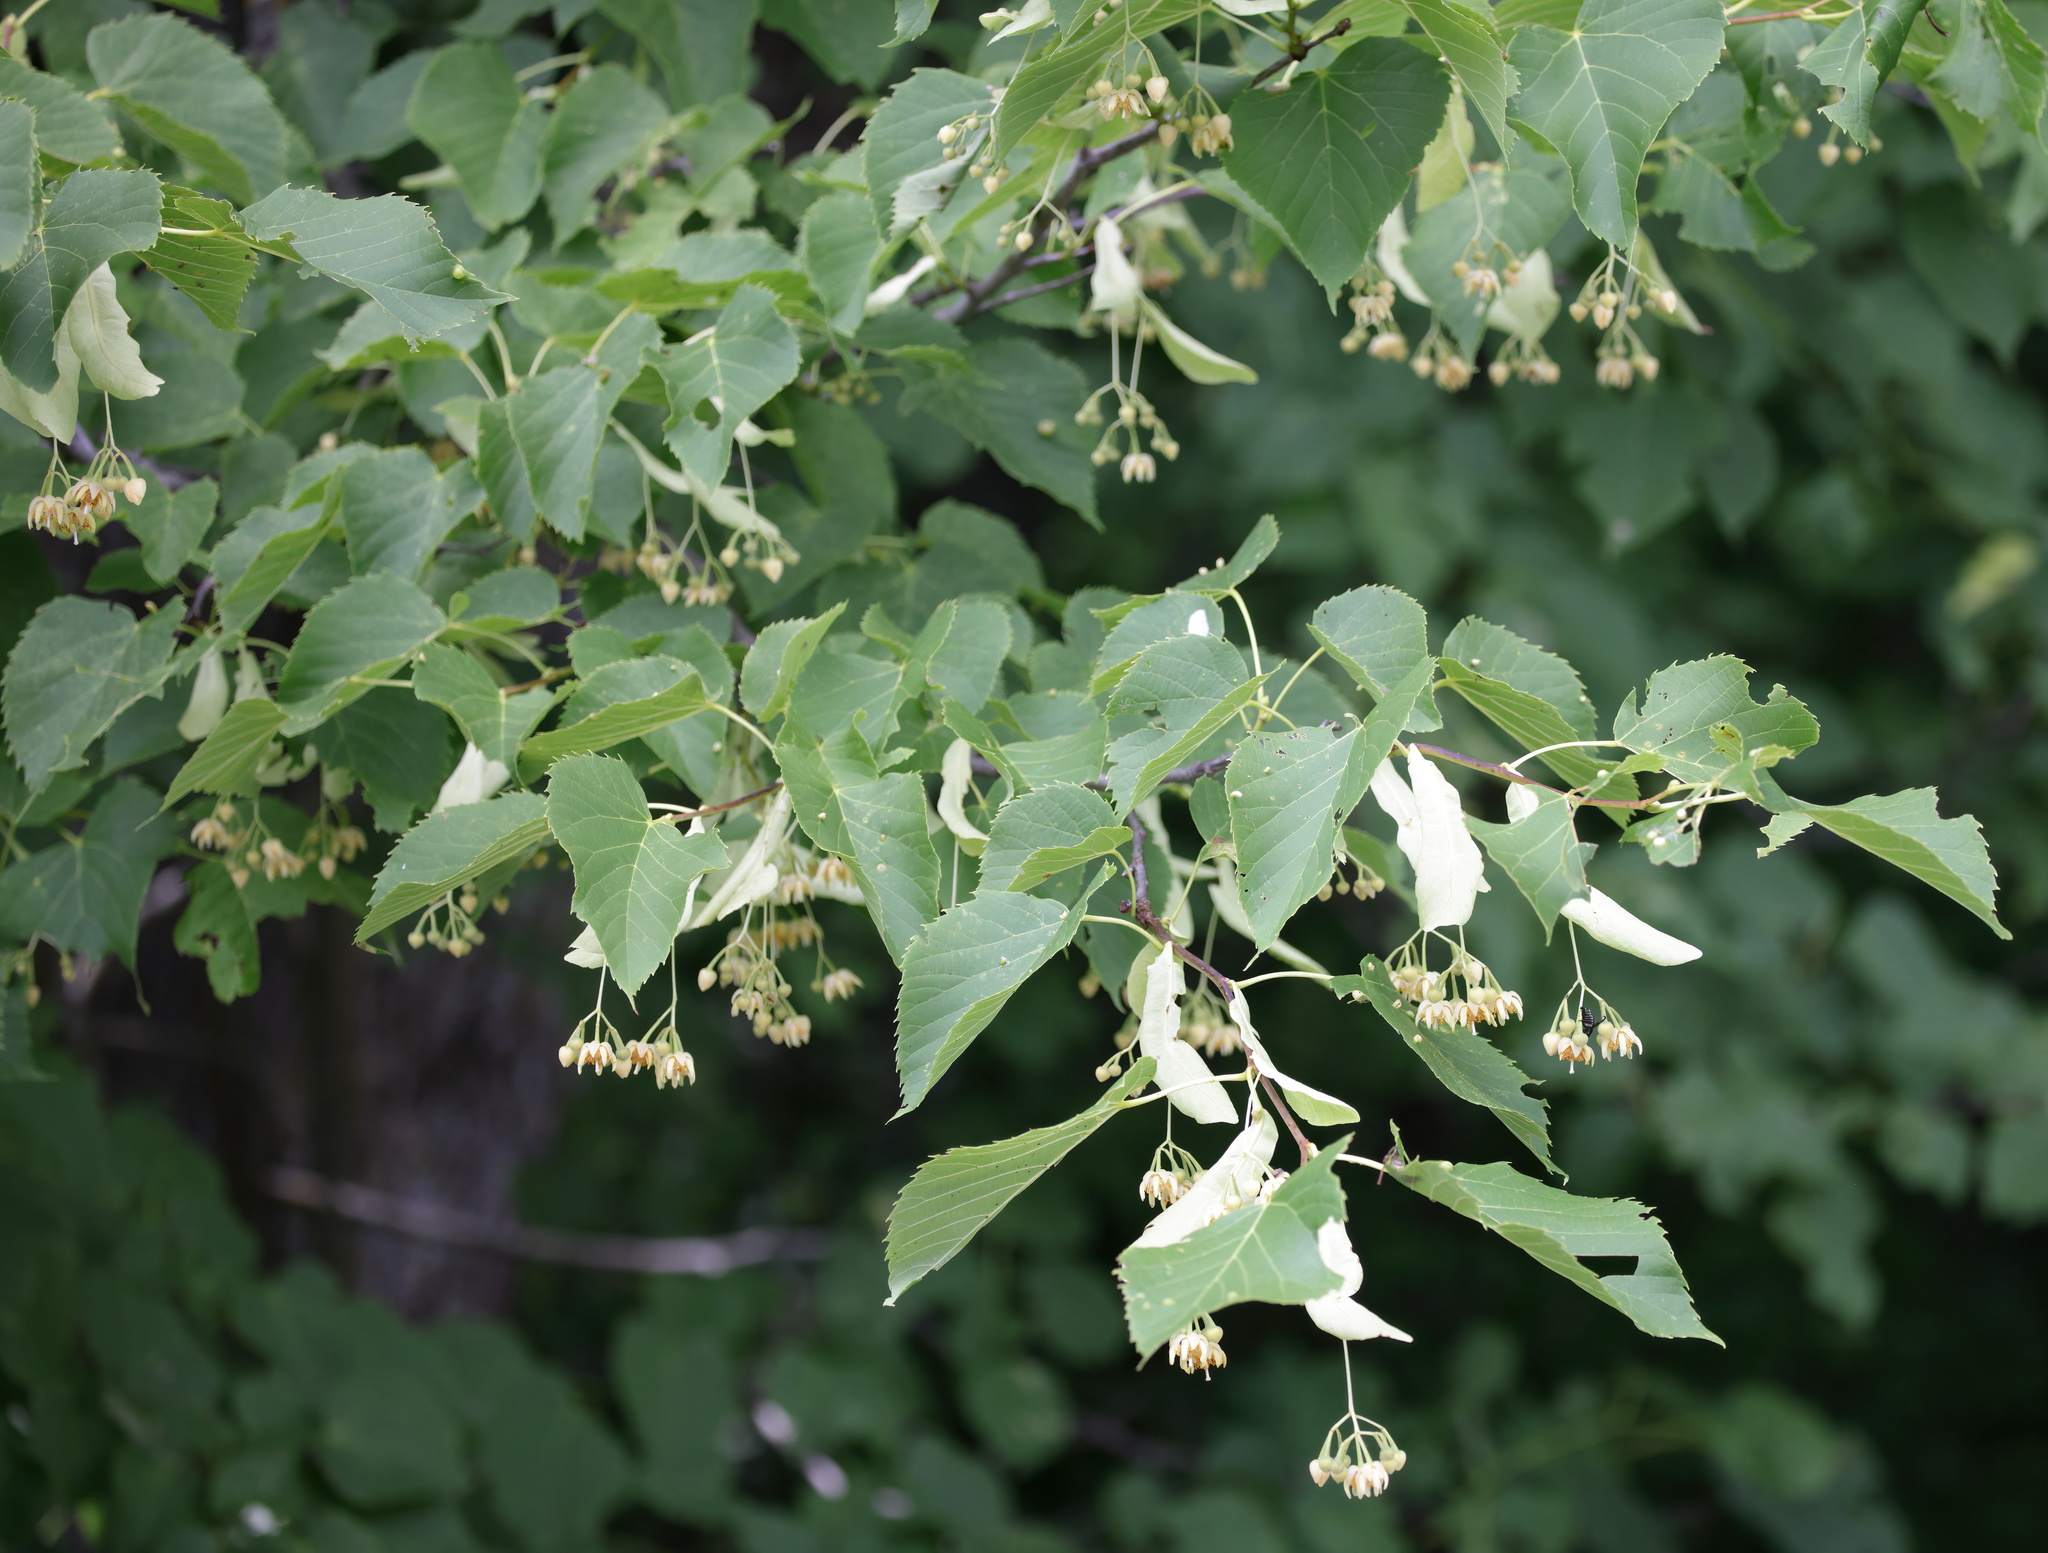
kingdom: Plantae
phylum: Tracheophyta
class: Magnoliopsida
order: Malvales
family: Malvaceae
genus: Tilia
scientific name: Tilia americana
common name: Basswood
